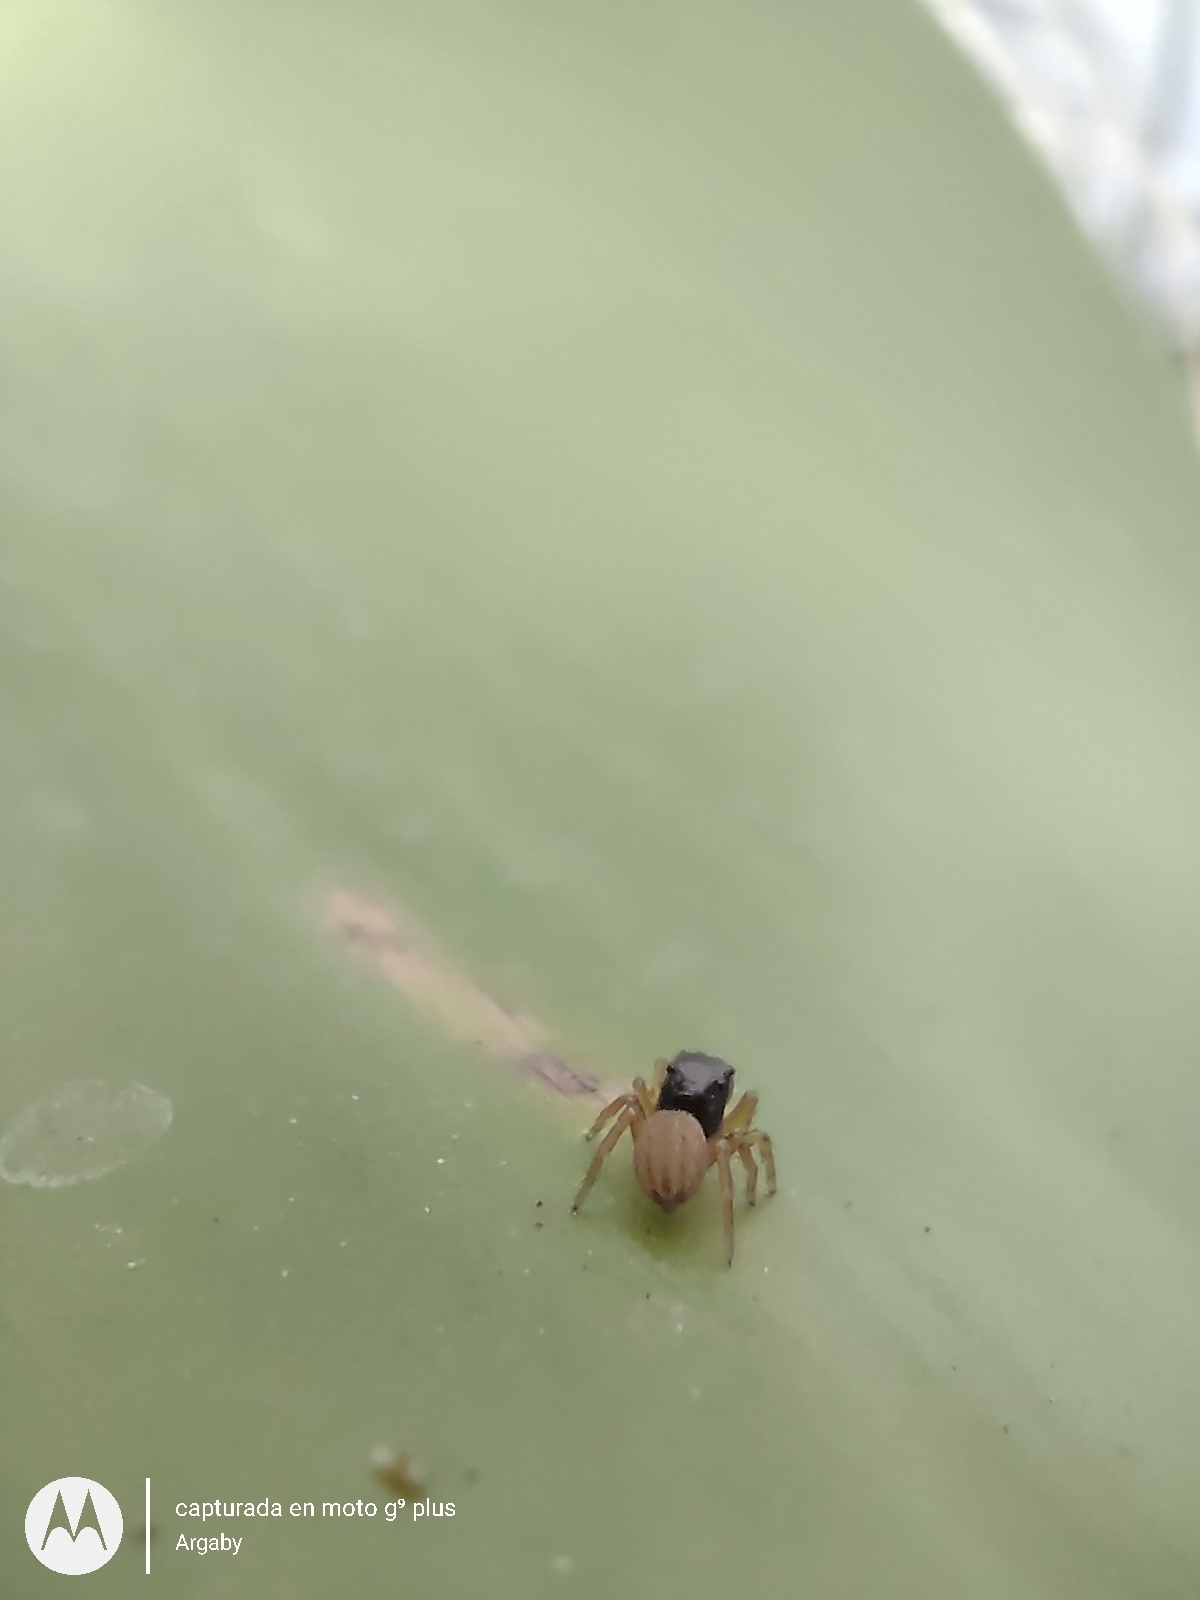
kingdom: Animalia
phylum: Arthropoda
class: Arachnida
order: Araneae
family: Salticidae
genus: Euophrys
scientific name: Euophrys melanoleuca
